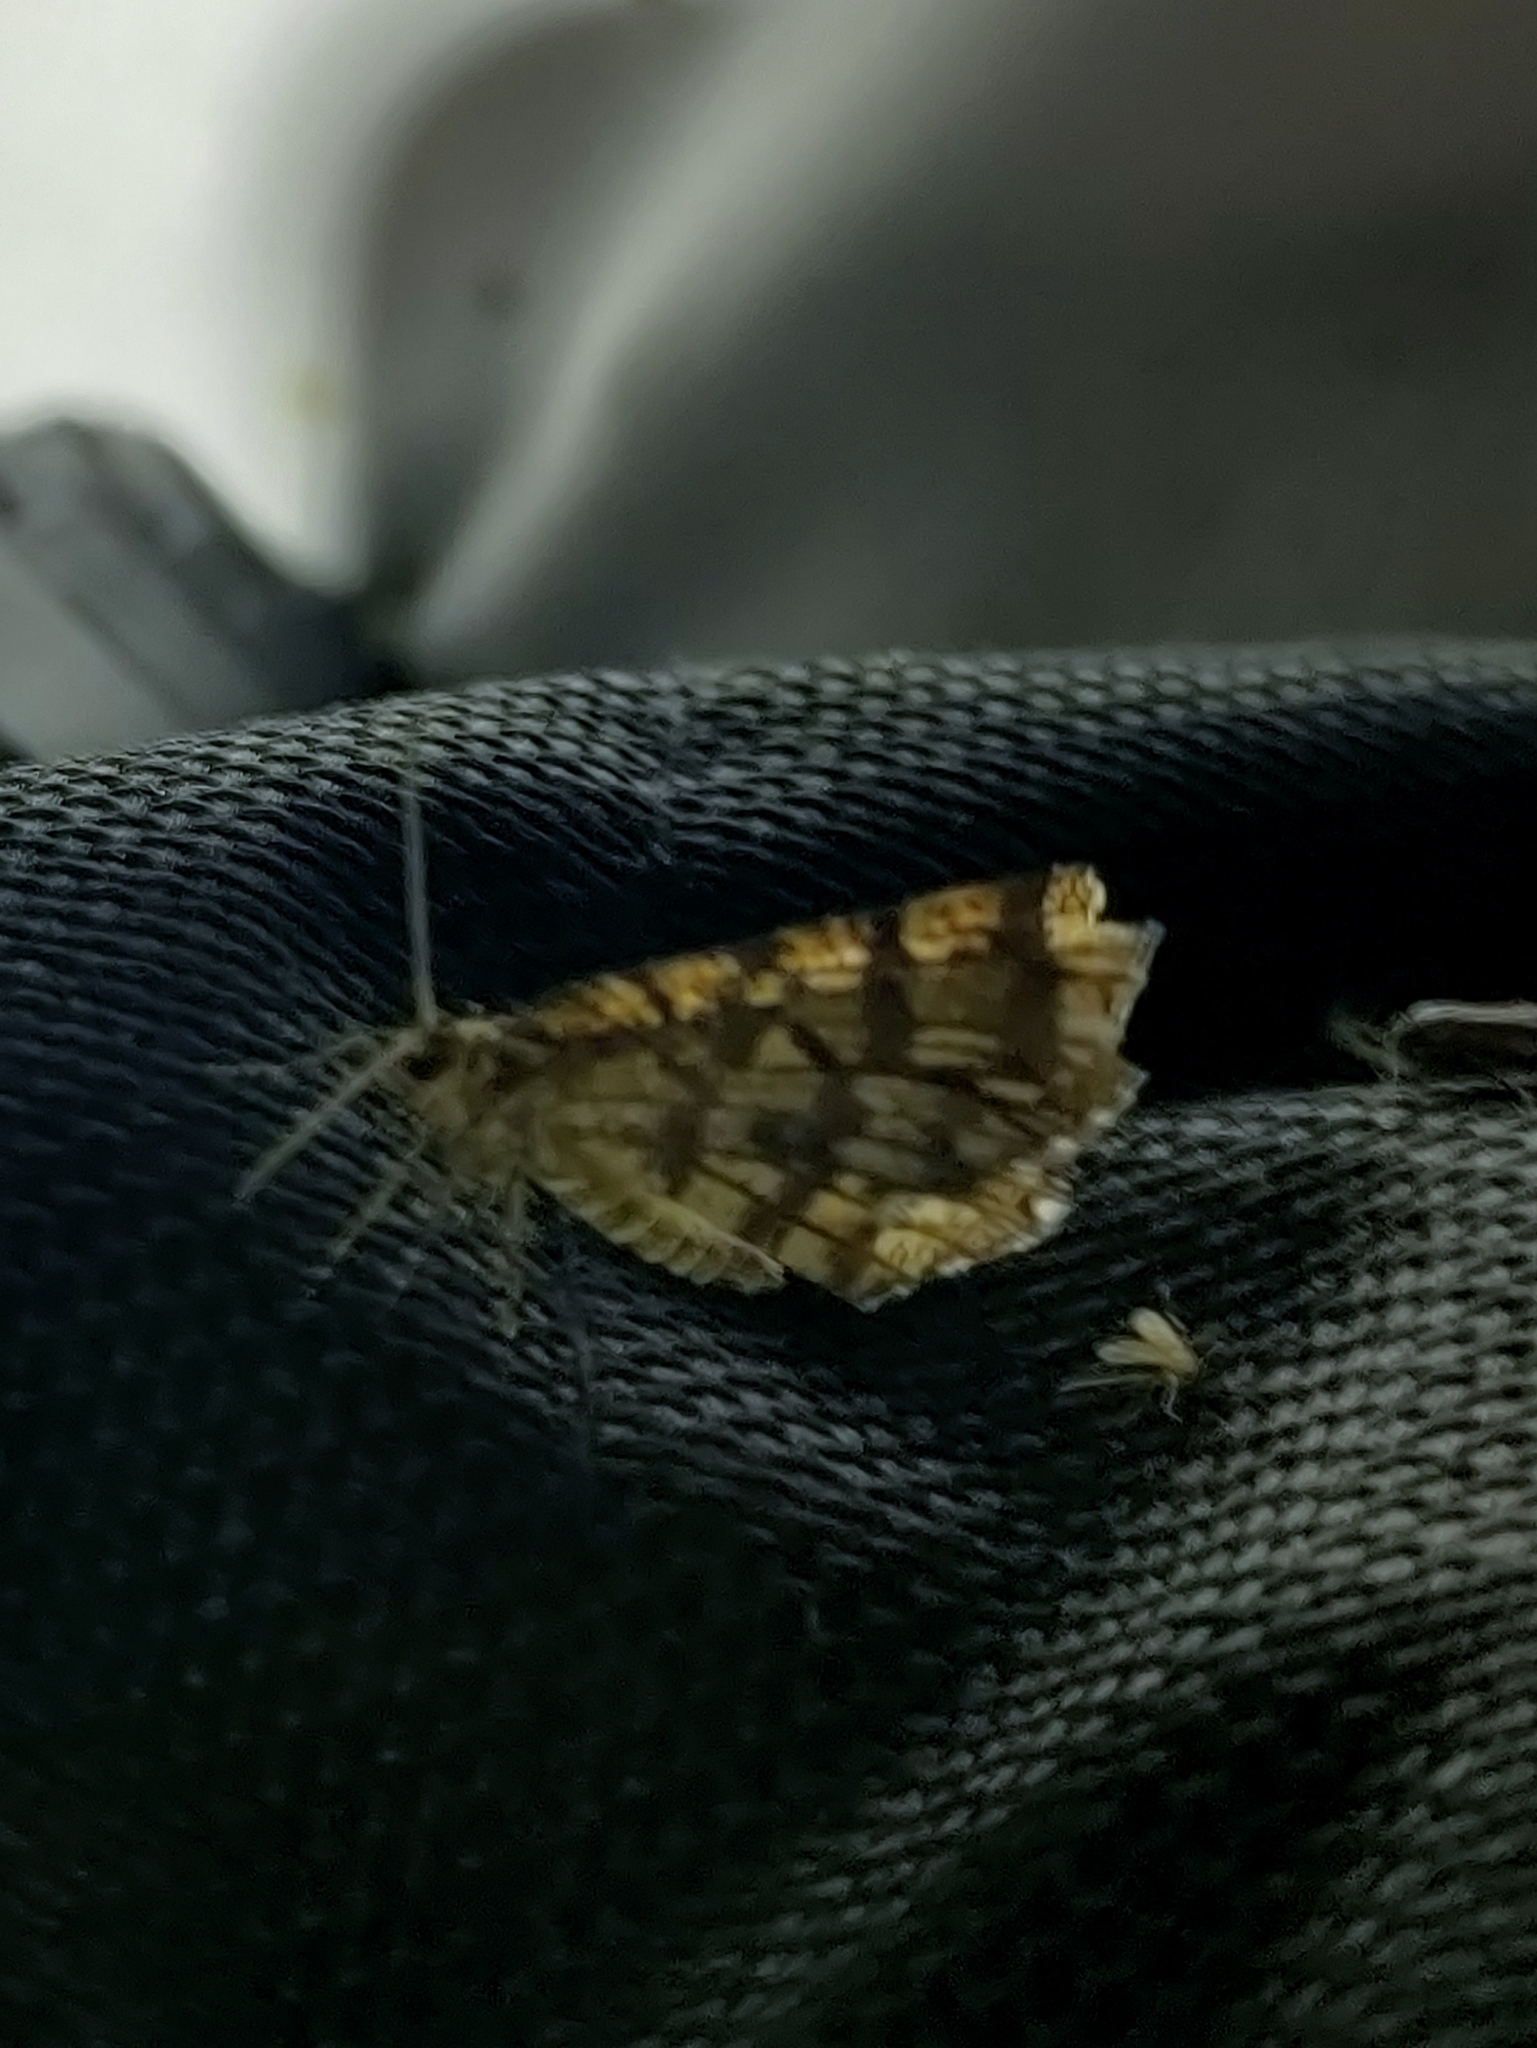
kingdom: Animalia
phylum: Arthropoda
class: Insecta
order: Lepidoptera
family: Geometridae
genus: Chiasmia
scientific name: Chiasmia clathrata
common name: Latticed heath
